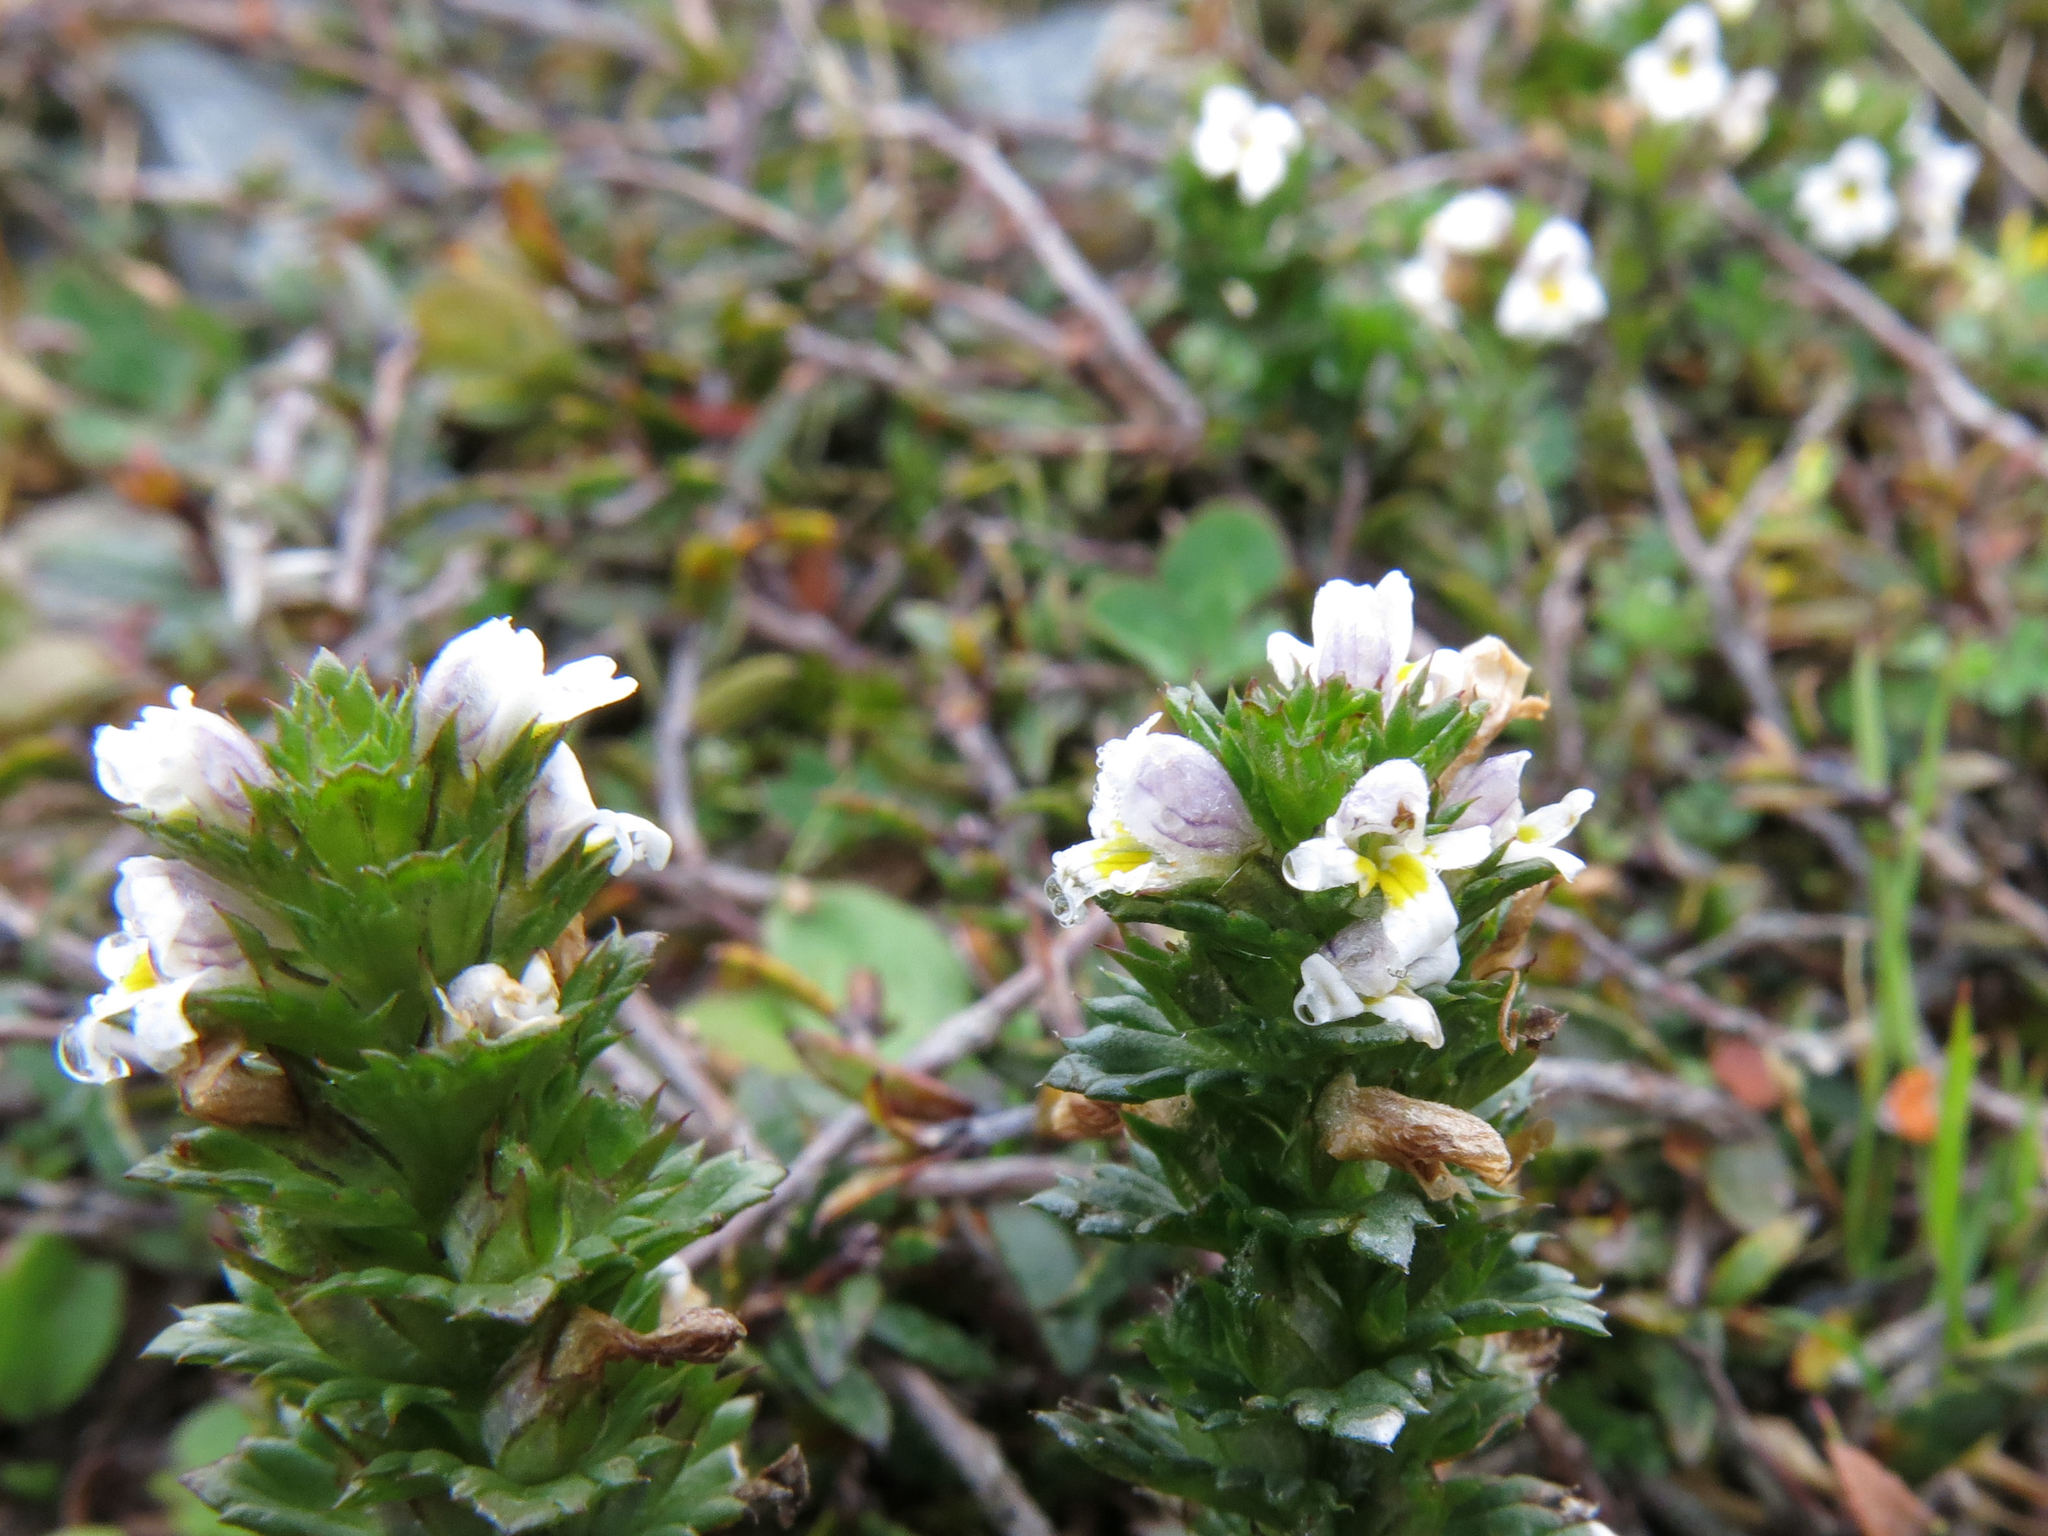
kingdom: Plantae
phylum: Tracheophyta
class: Magnoliopsida
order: Lamiales
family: Orobanchaceae
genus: Euphrasia
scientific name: Euphrasia nemorosa
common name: Common eyebright
